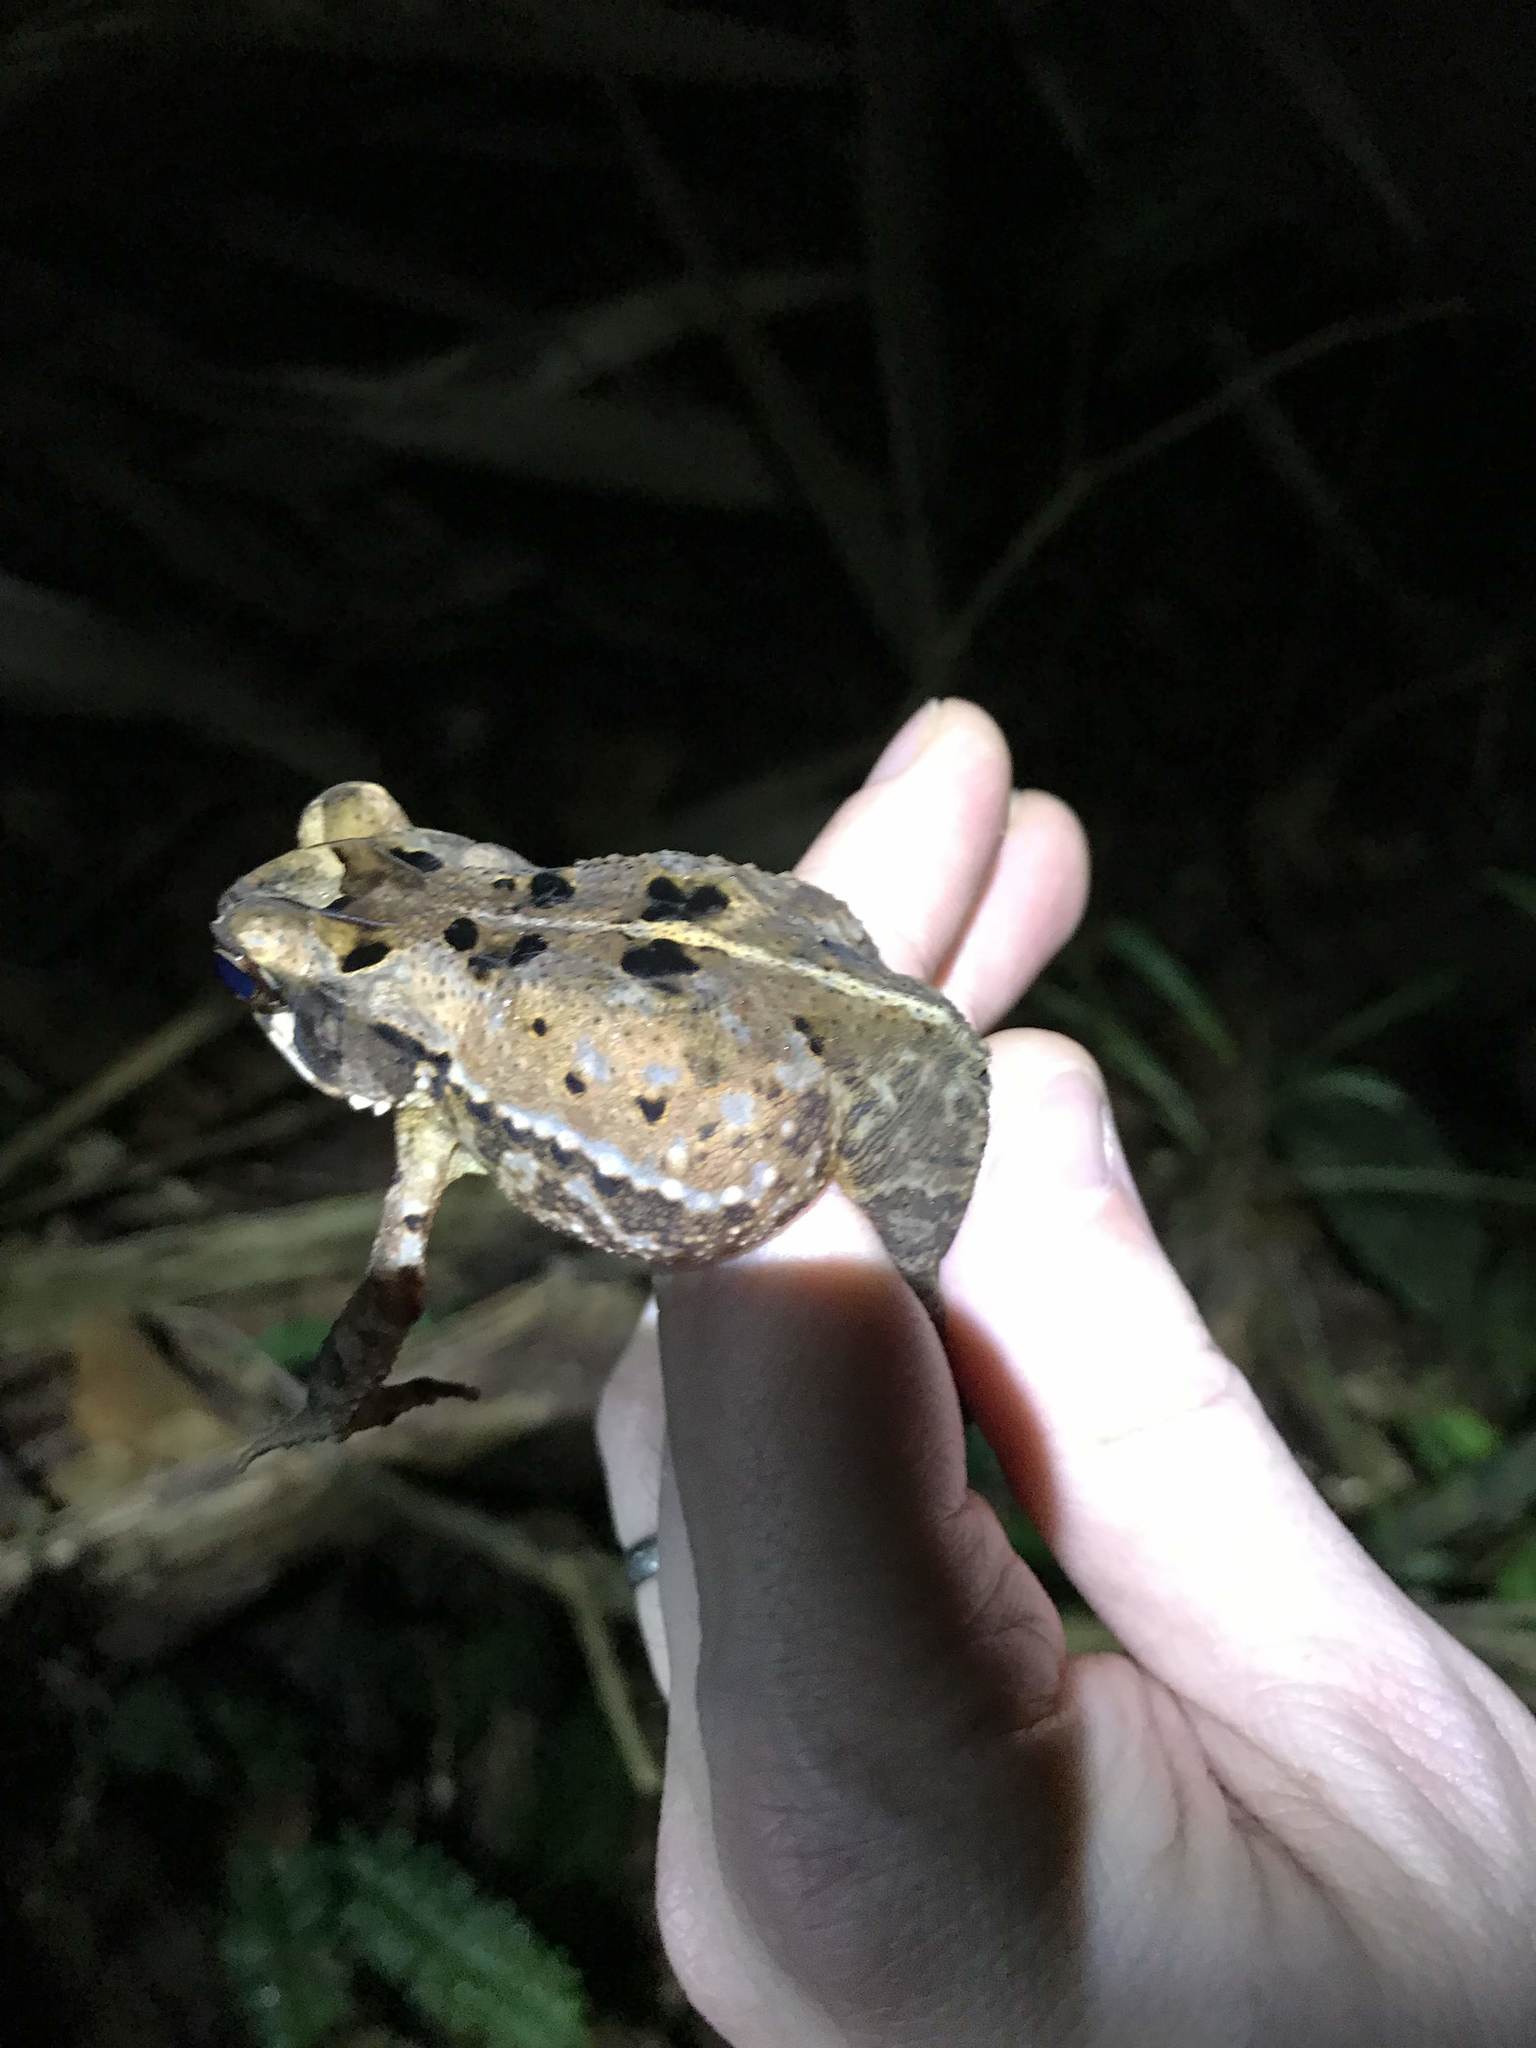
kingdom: Animalia
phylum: Chordata
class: Amphibia
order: Anura
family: Bufonidae
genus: Incilius
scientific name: Incilius melanochlorus
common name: Dark green toad
